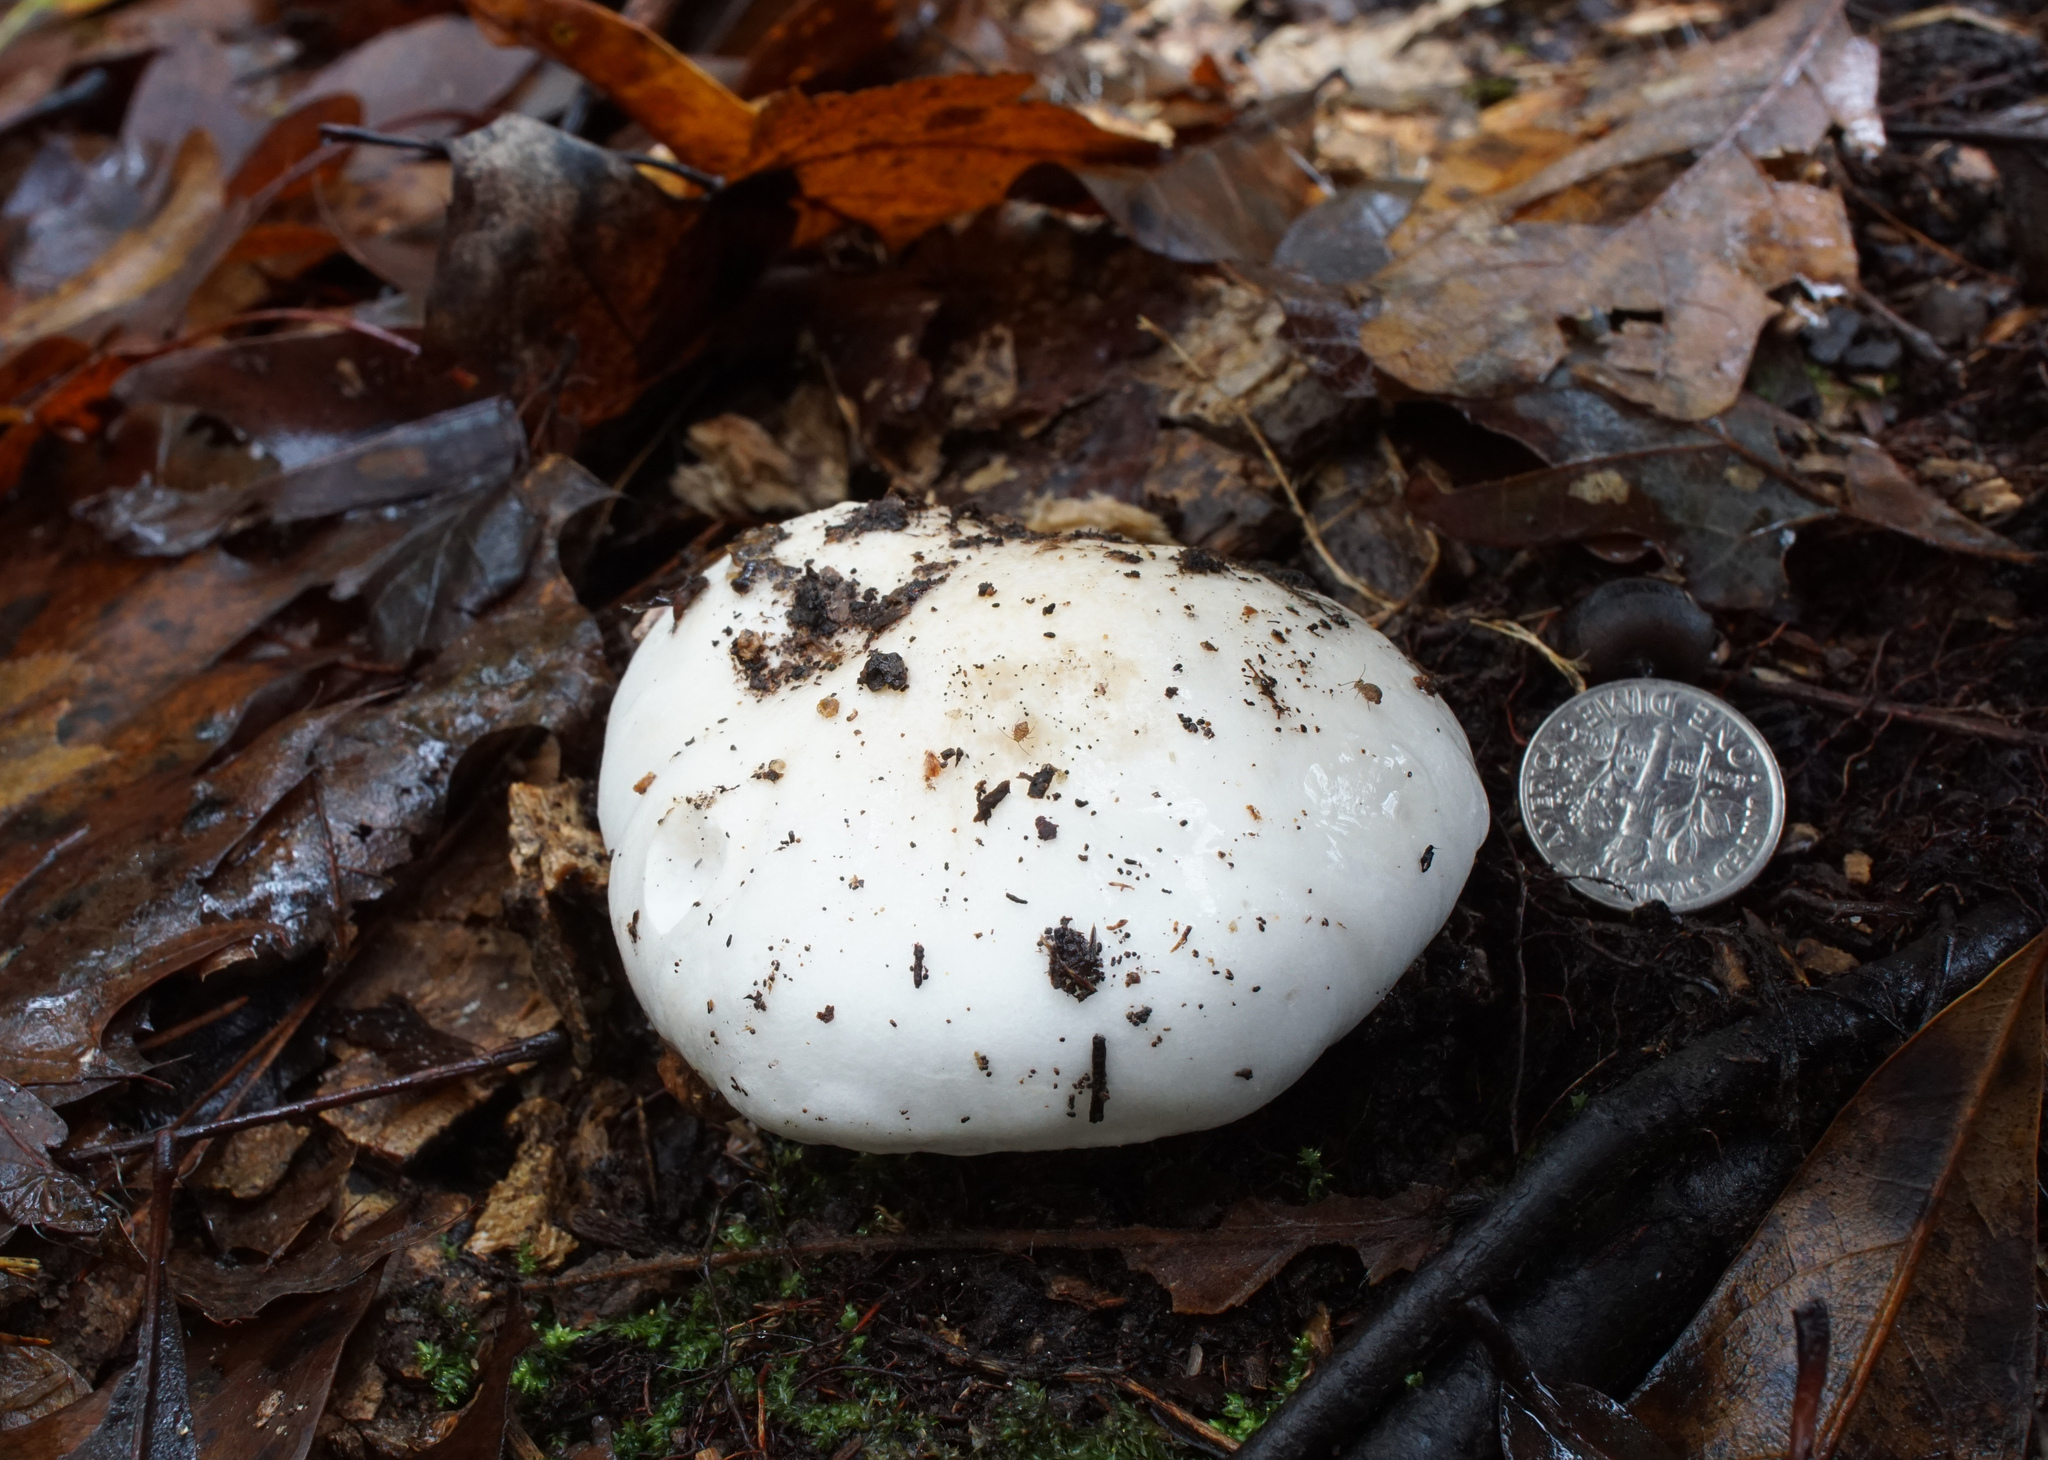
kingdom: Fungi
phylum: Basidiomycota
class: Agaricomycetes
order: Agaricales
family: Hygrophoraceae
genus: Hygrophorus
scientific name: Hygrophorus subsordidus
